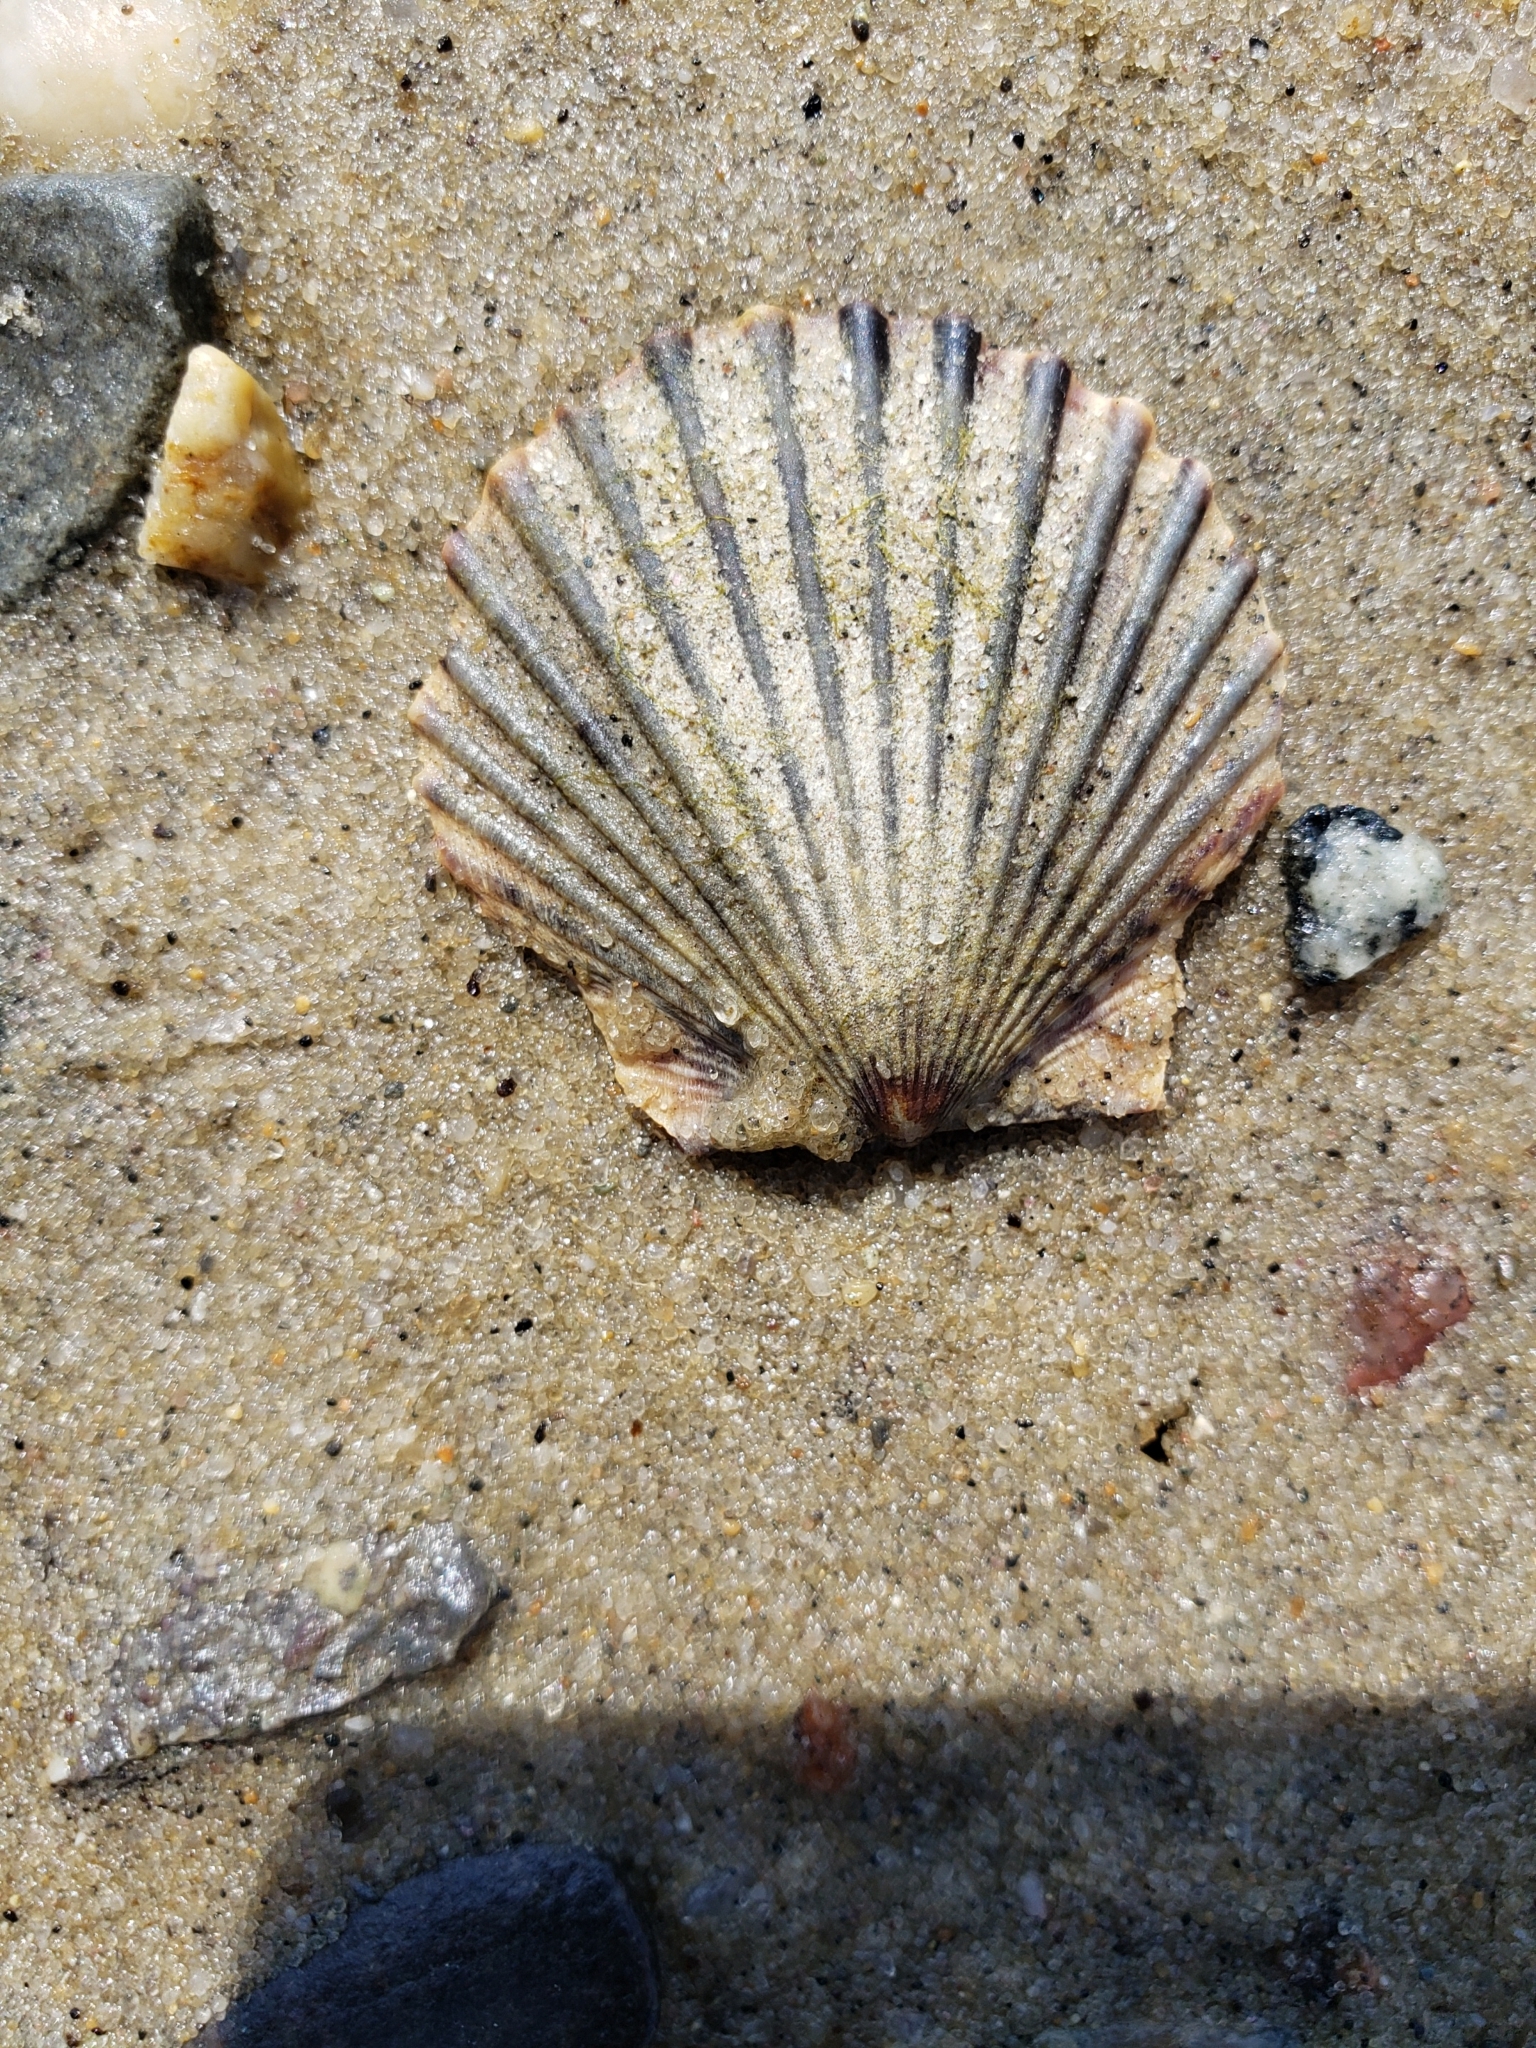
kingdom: Animalia
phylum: Mollusca
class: Bivalvia
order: Pectinida
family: Pectinidae
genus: Argopecten
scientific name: Argopecten irradians
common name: Atlantic bay scallop
